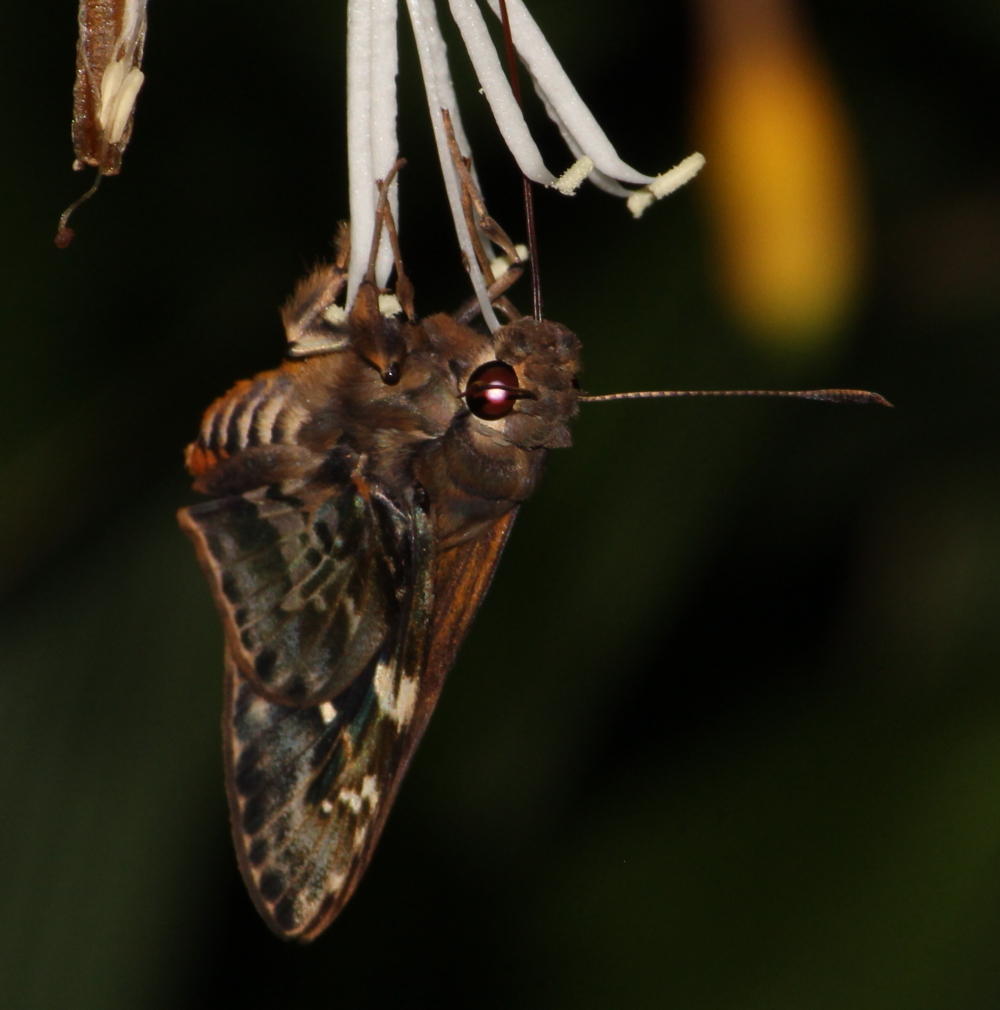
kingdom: Animalia
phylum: Arthropoda
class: Insecta
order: Lepidoptera
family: Hesperiidae
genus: Artitropa
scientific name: Artitropa erinnys
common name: Bush nightfighter
